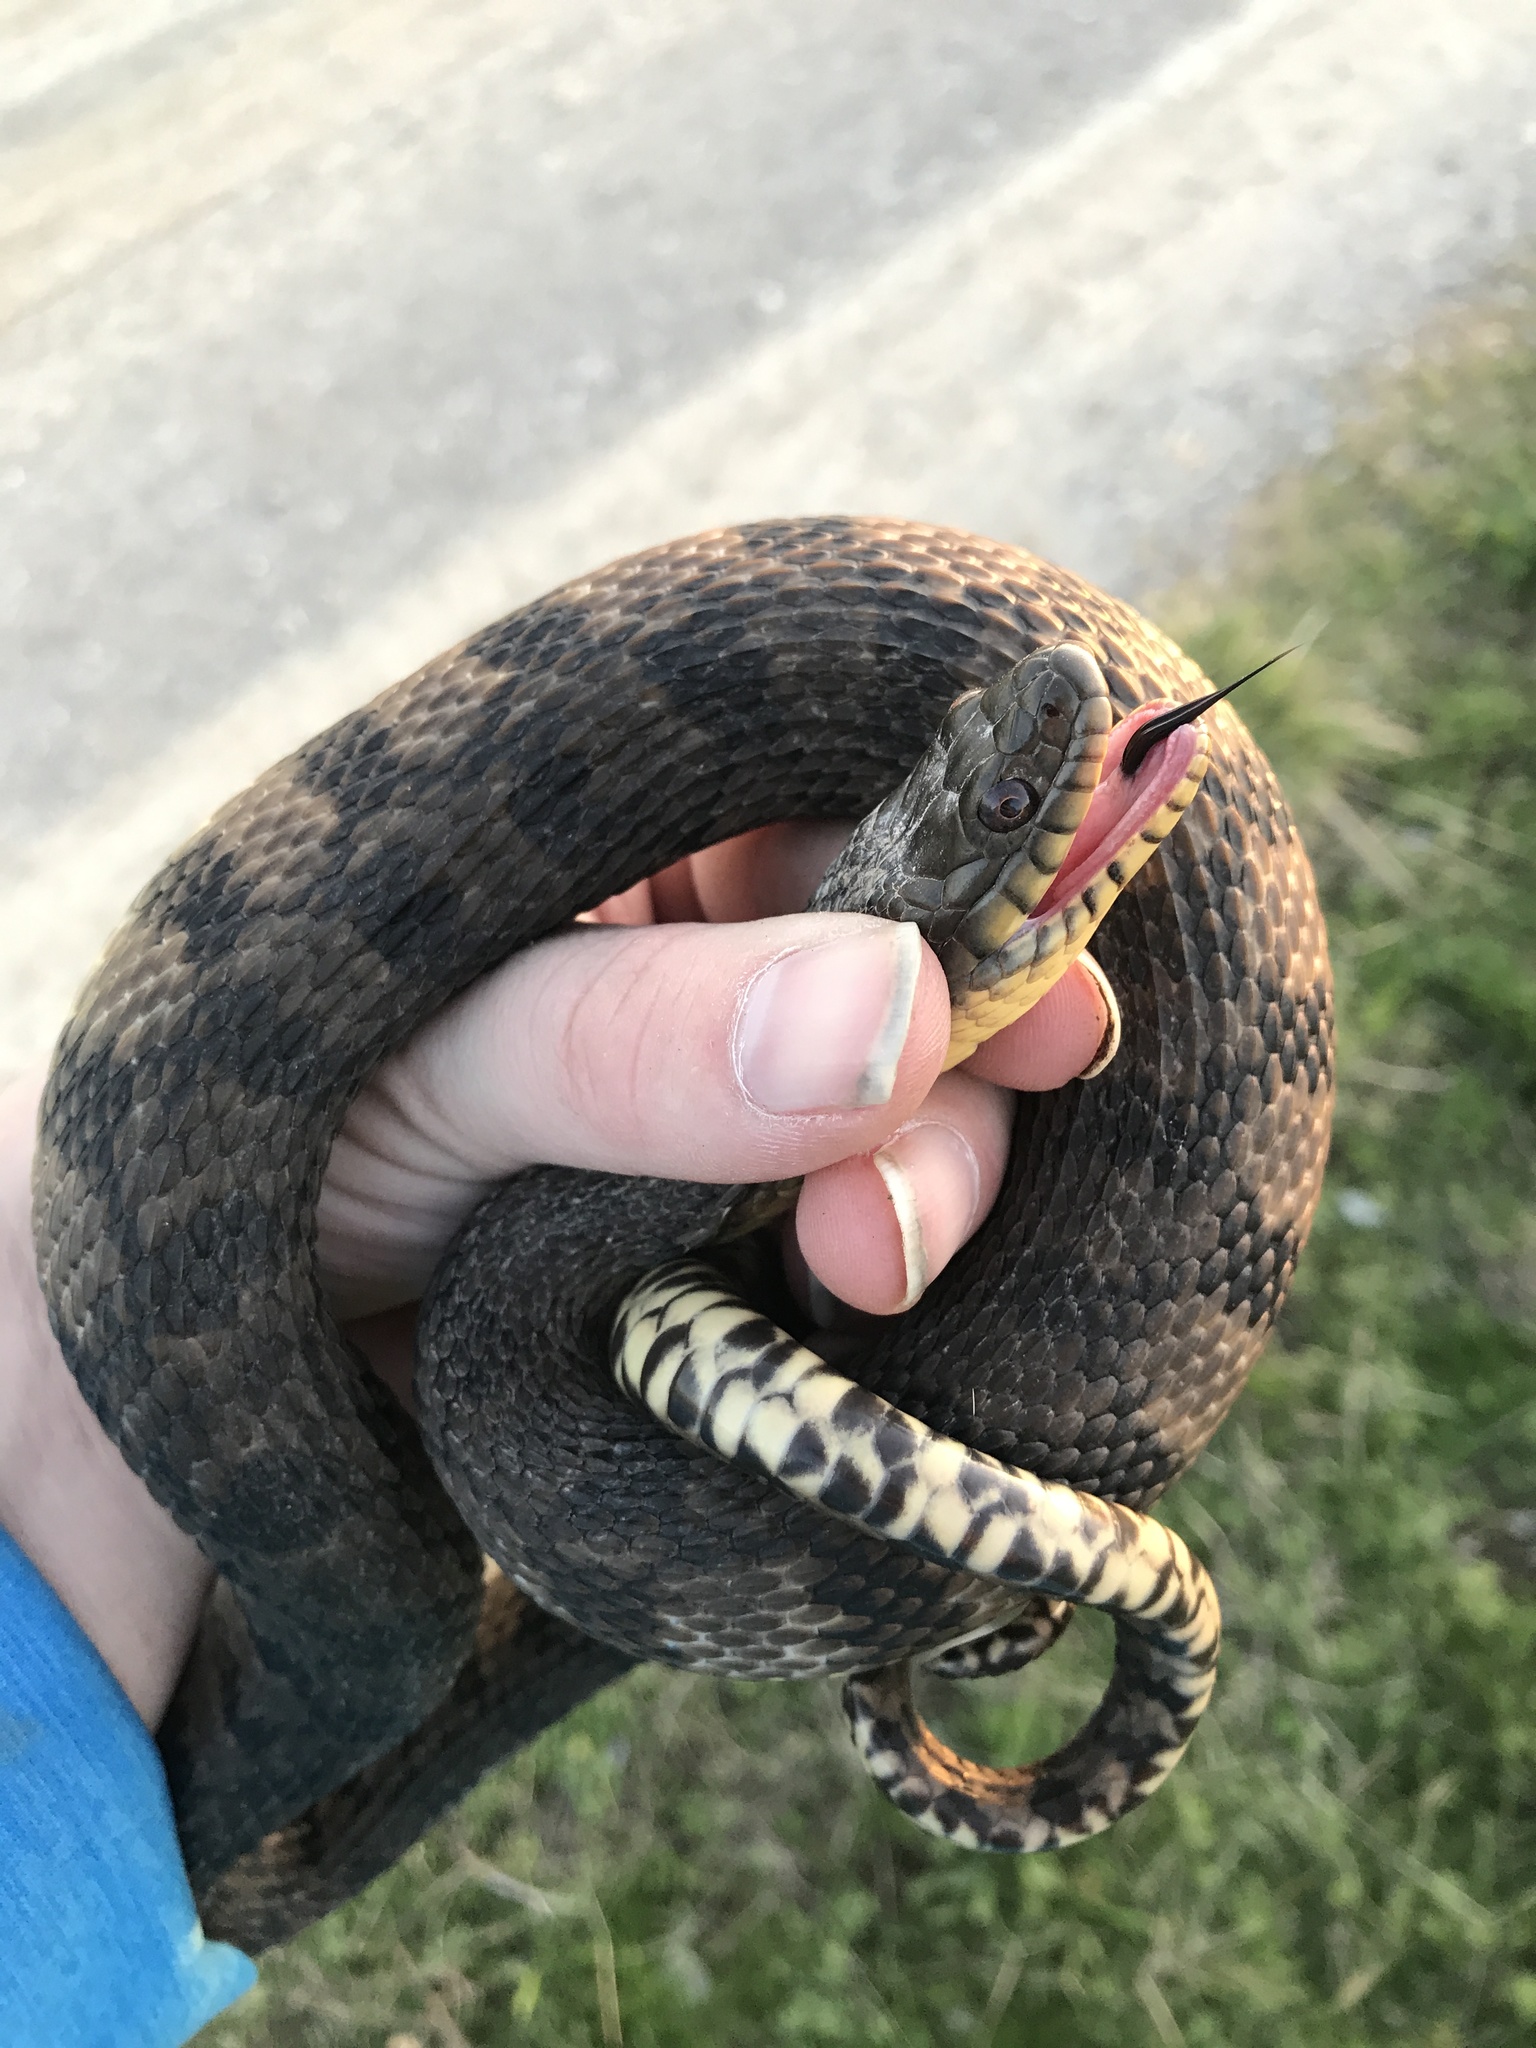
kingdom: Animalia
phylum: Chordata
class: Squamata
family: Colubridae
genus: Nerodia
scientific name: Nerodia rhombifer
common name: Diamondback water snake
